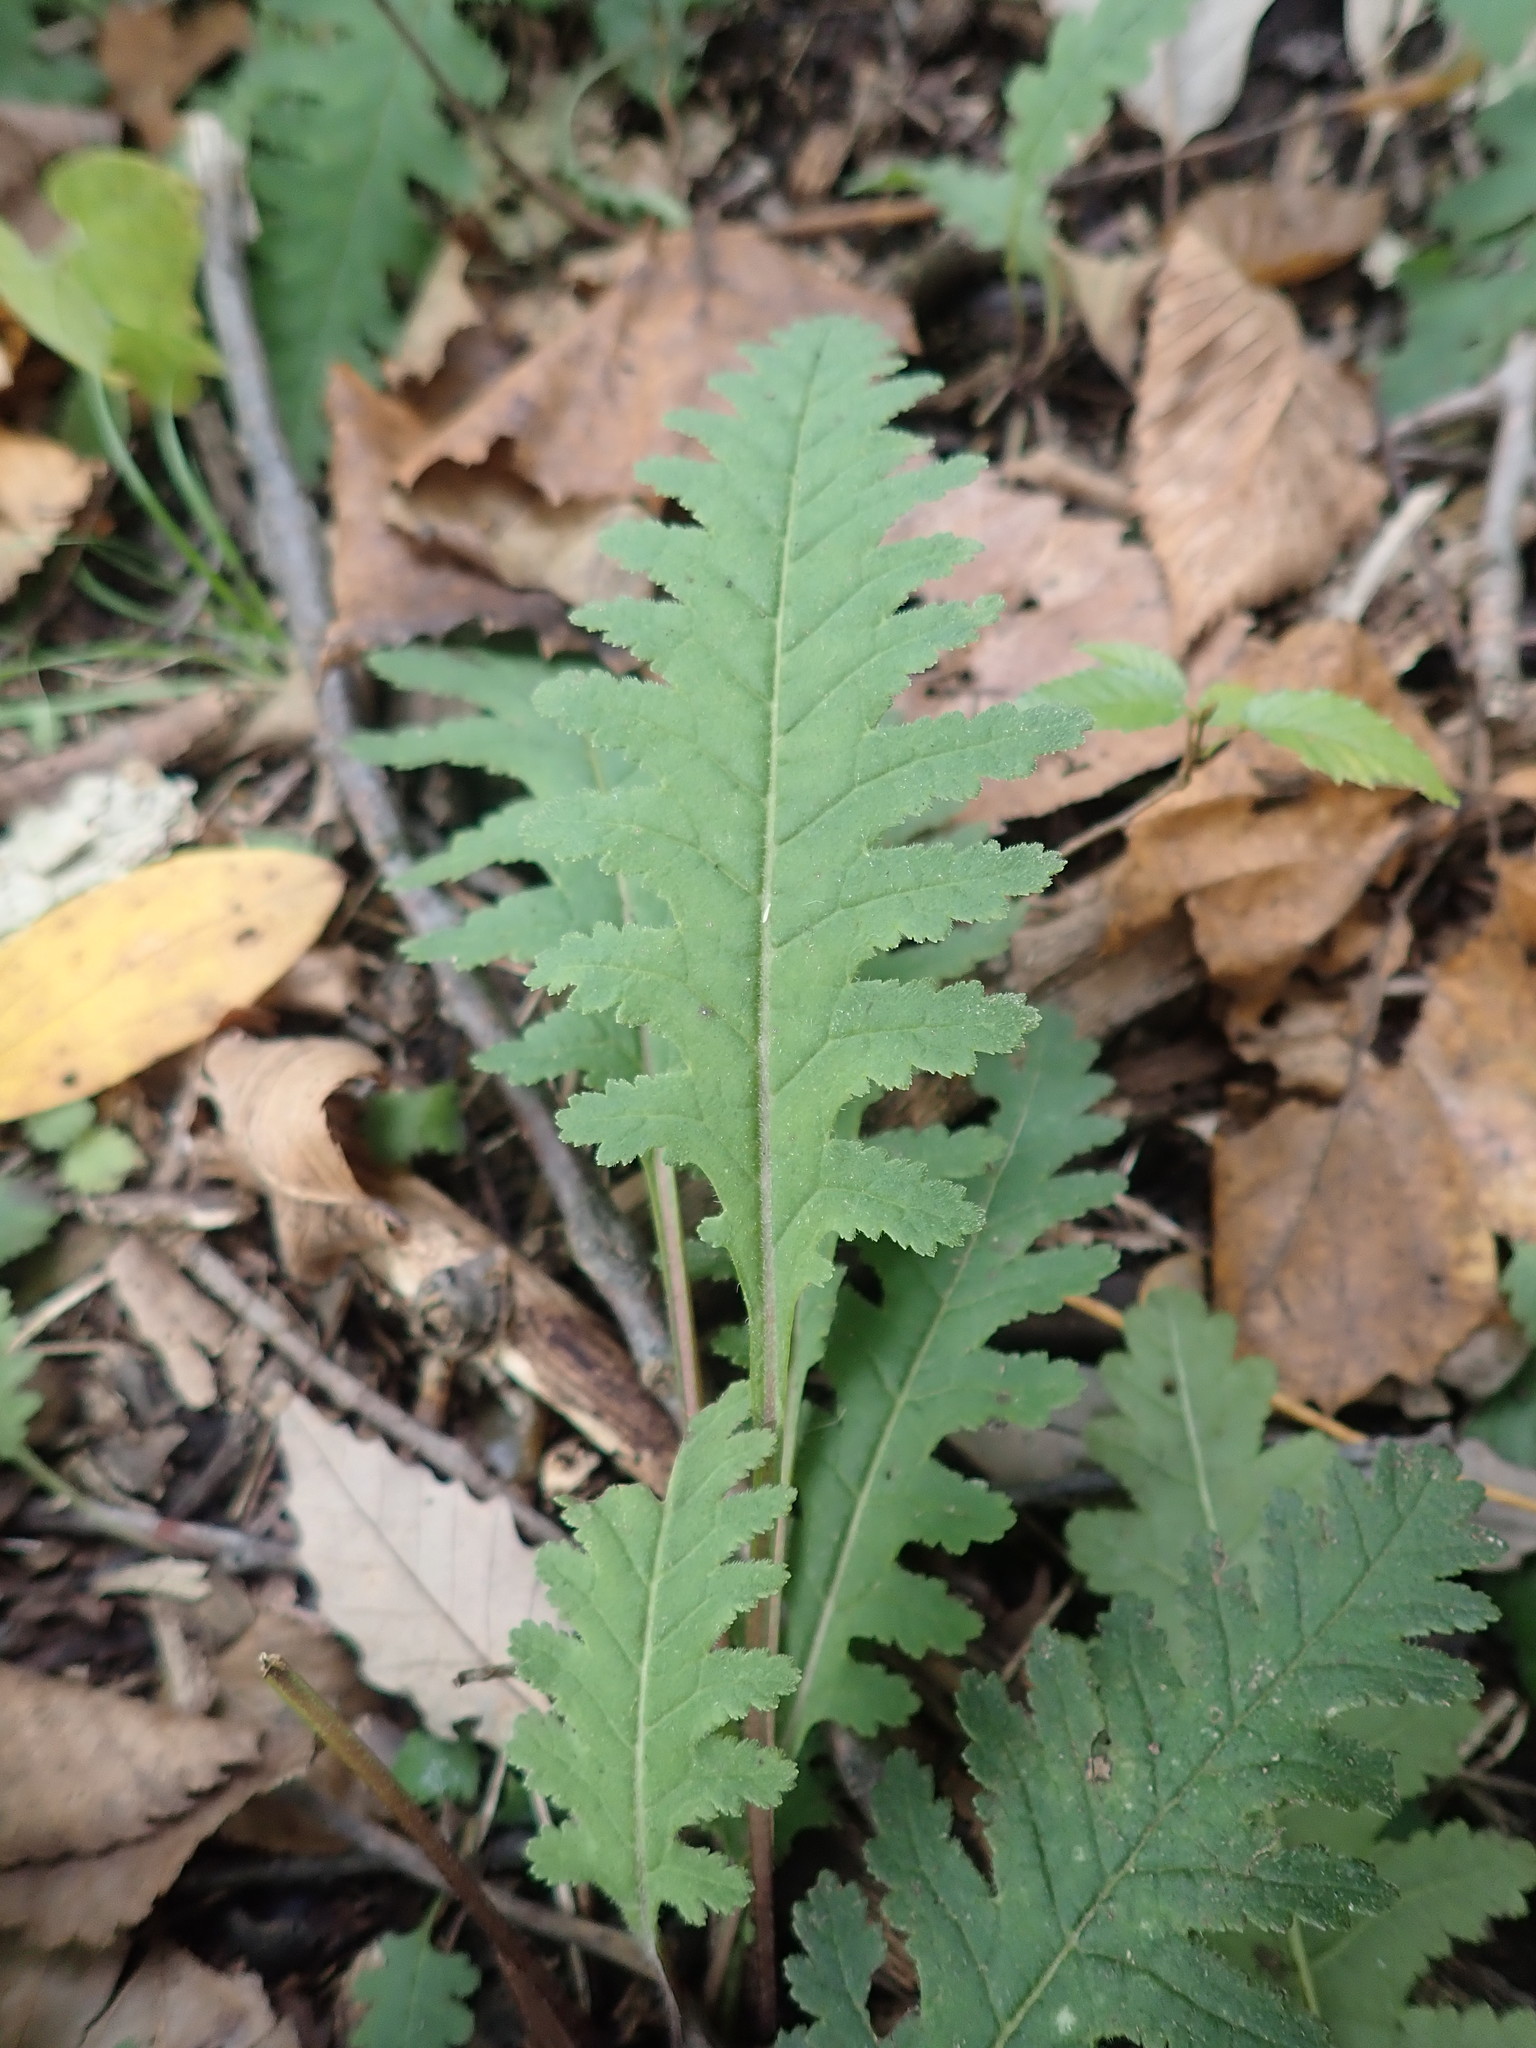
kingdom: Plantae
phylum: Tracheophyta
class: Magnoliopsida
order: Lamiales
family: Orobanchaceae
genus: Pedicularis
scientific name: Pedicularis canadensis
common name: Early lousewort
